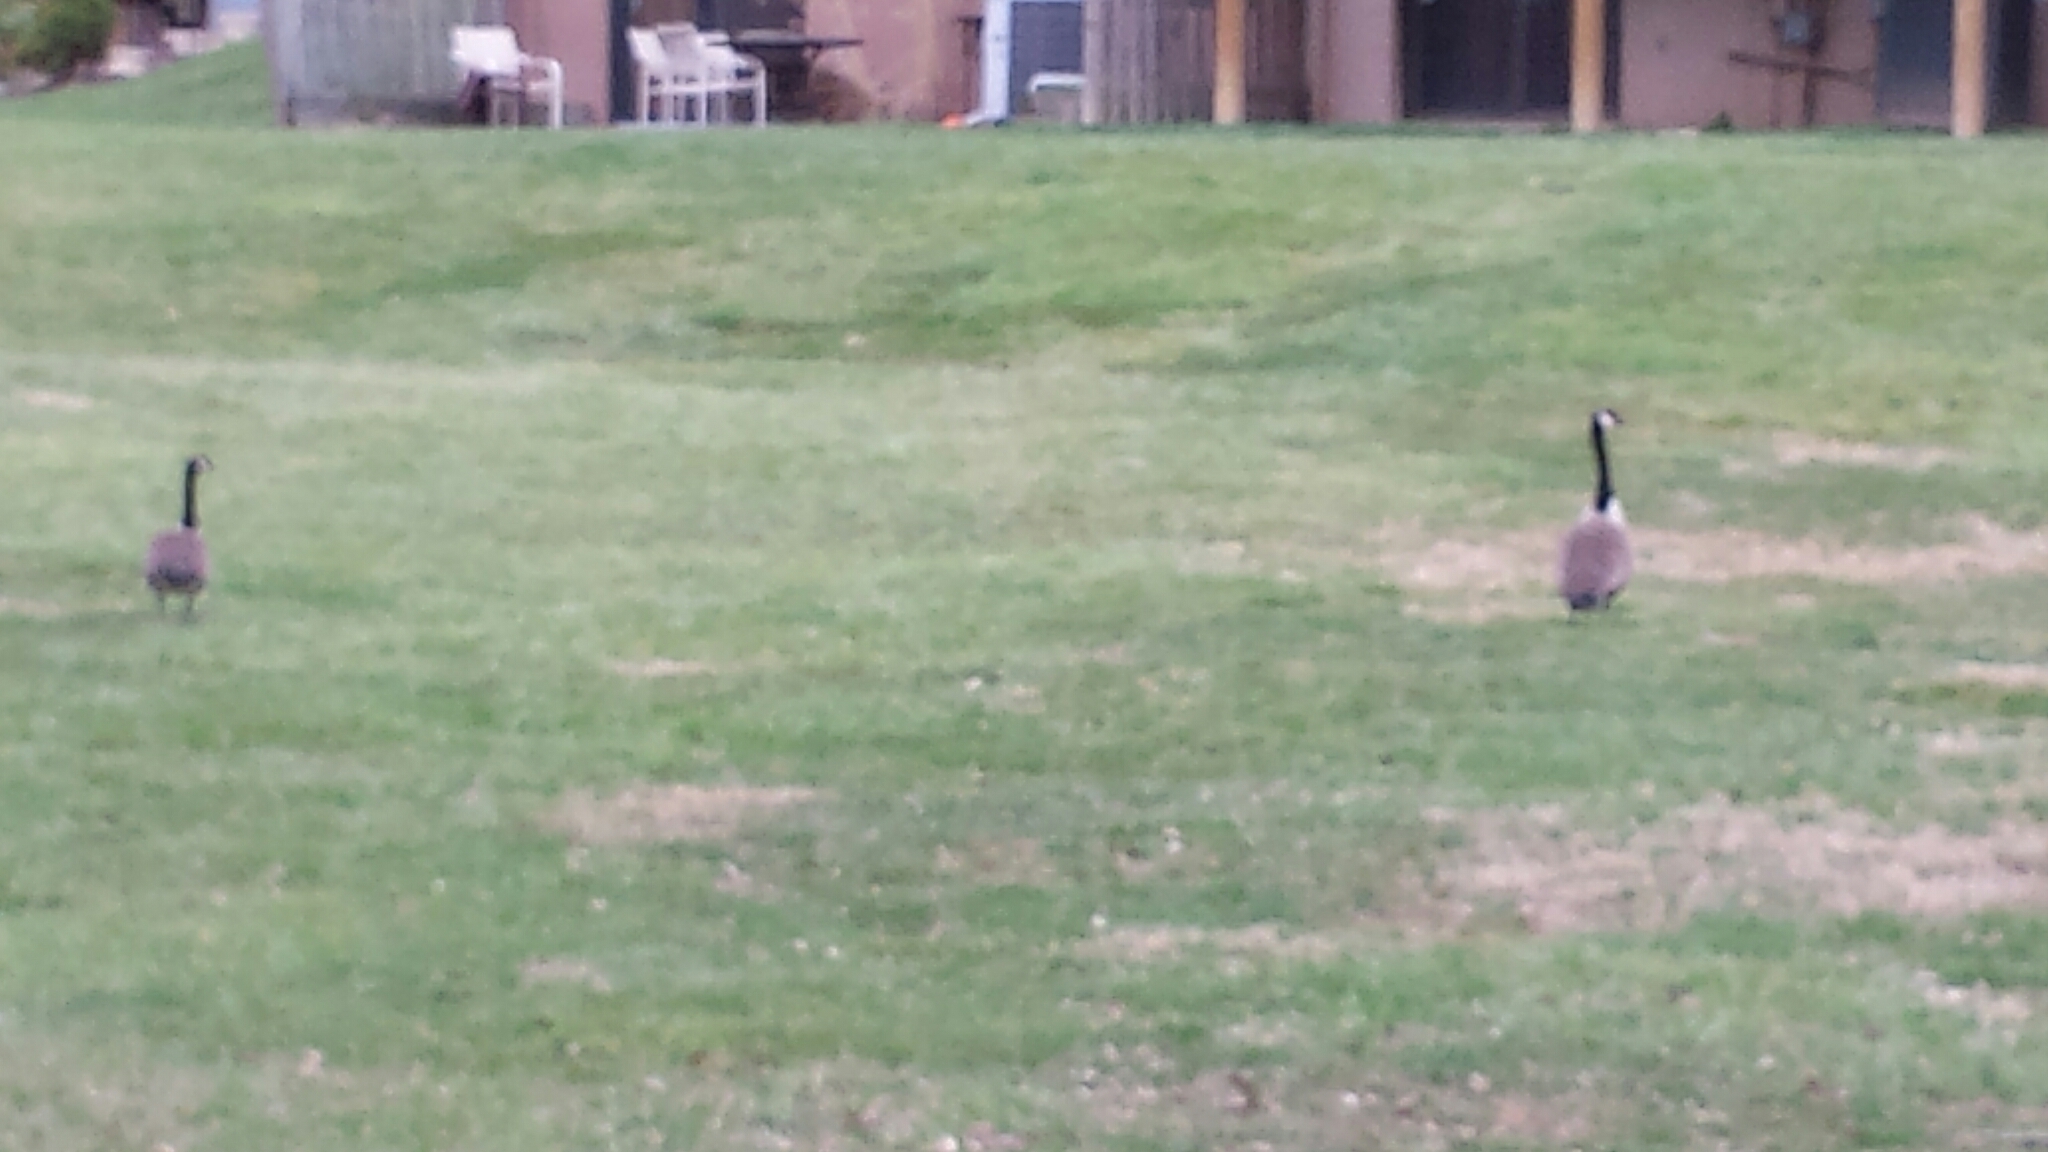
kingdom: Animalia
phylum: Chordata
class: Aves
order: Anseriformes
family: Anatidae
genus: Branta
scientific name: Branta canadensis
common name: Canada goose
